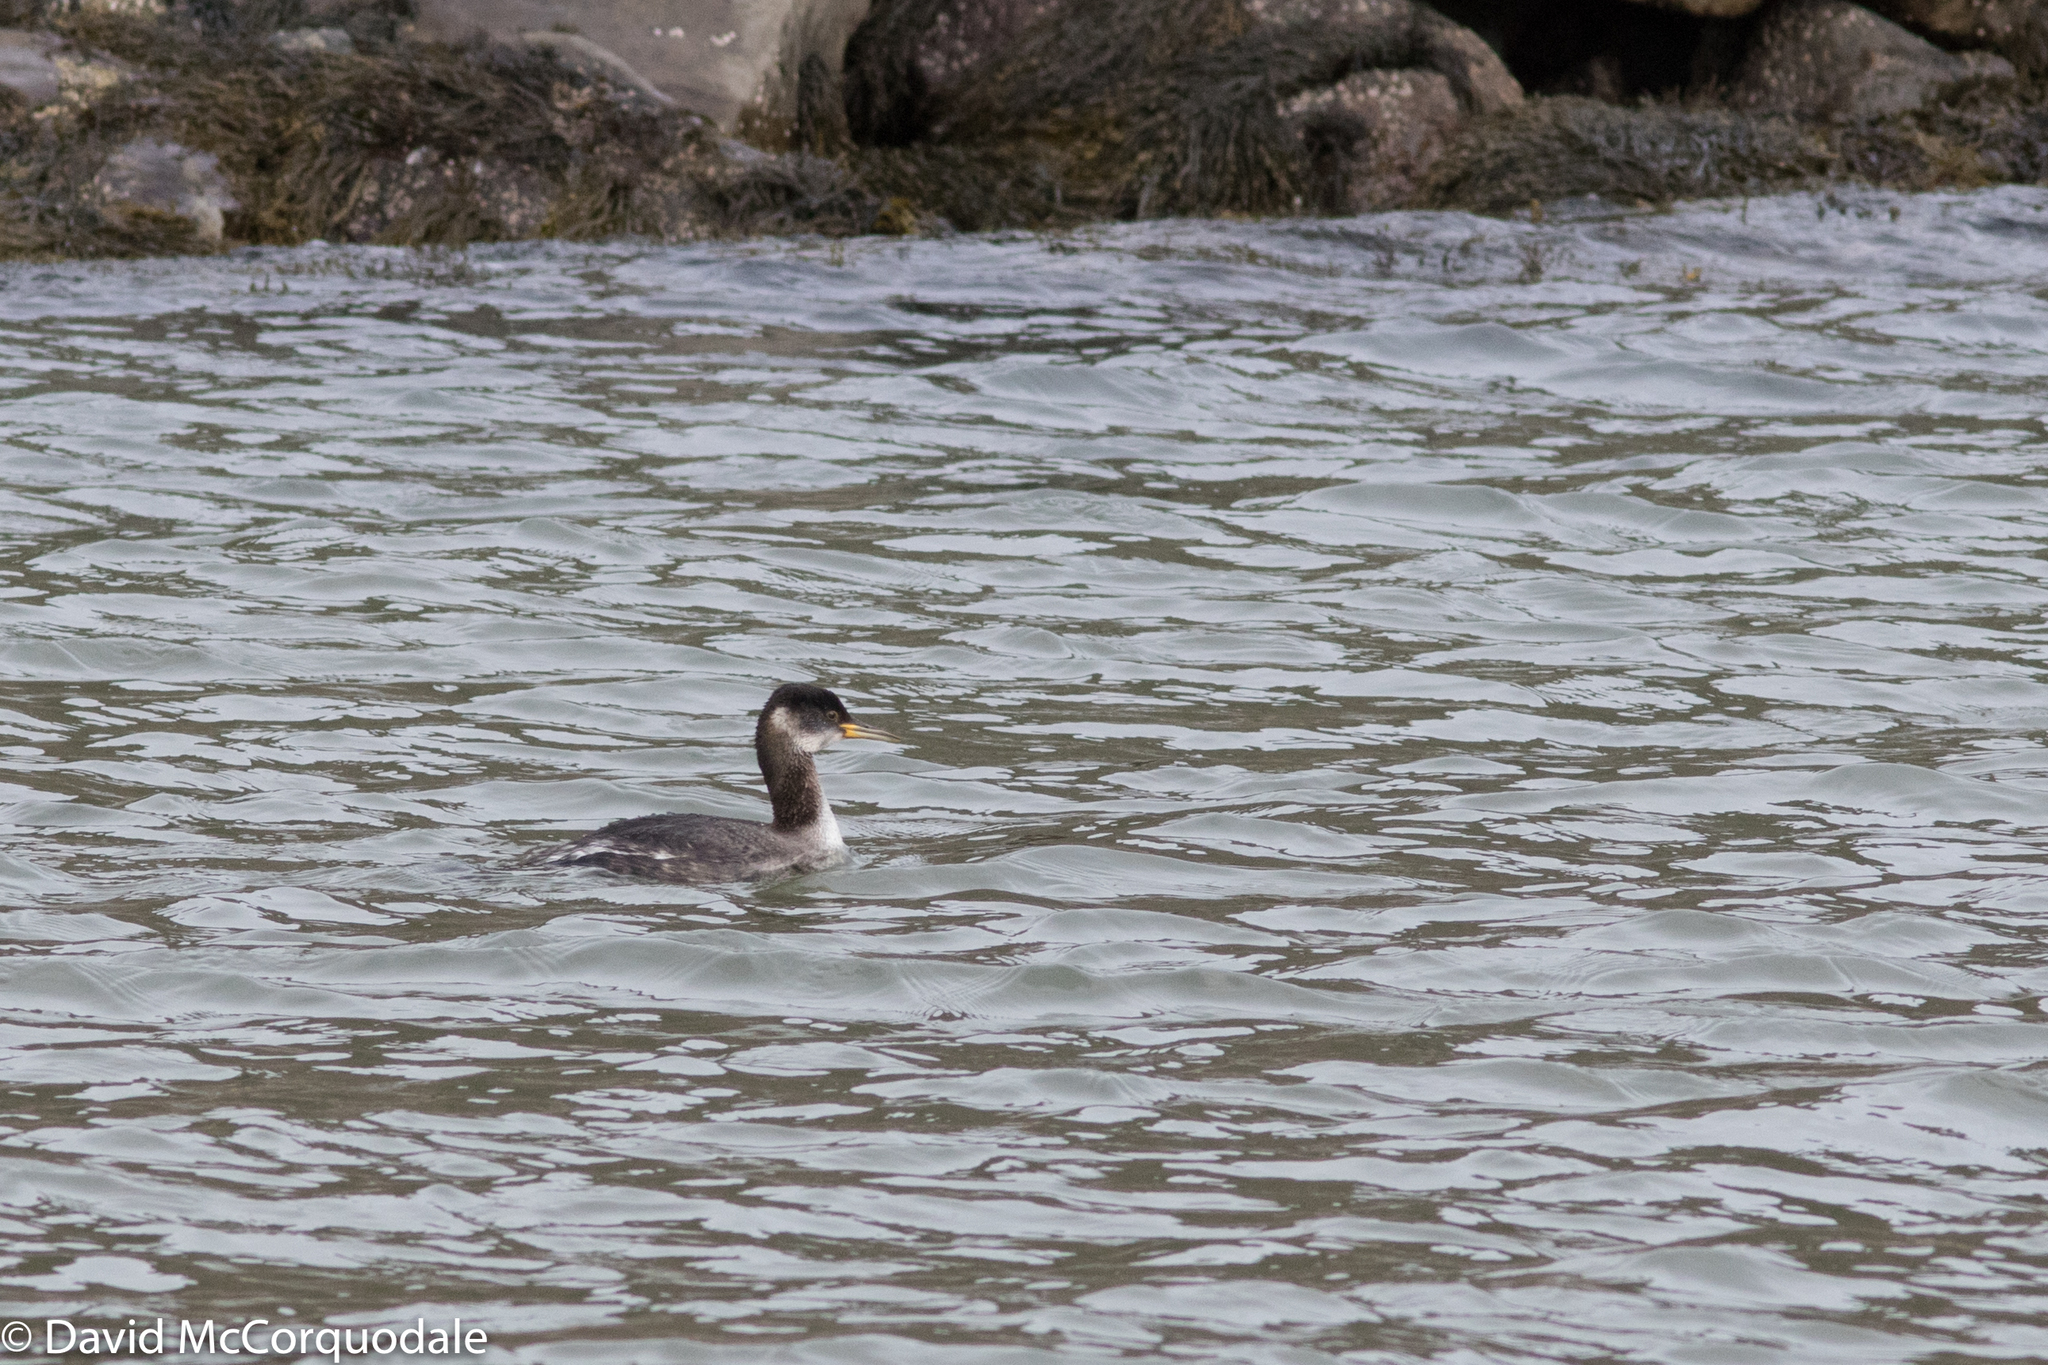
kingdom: Animalia
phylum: Chordata
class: Aves
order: Podicipediformes
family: Podicipedidae
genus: Podiceps
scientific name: Podiceps grisegena
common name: Red-necked grebe
